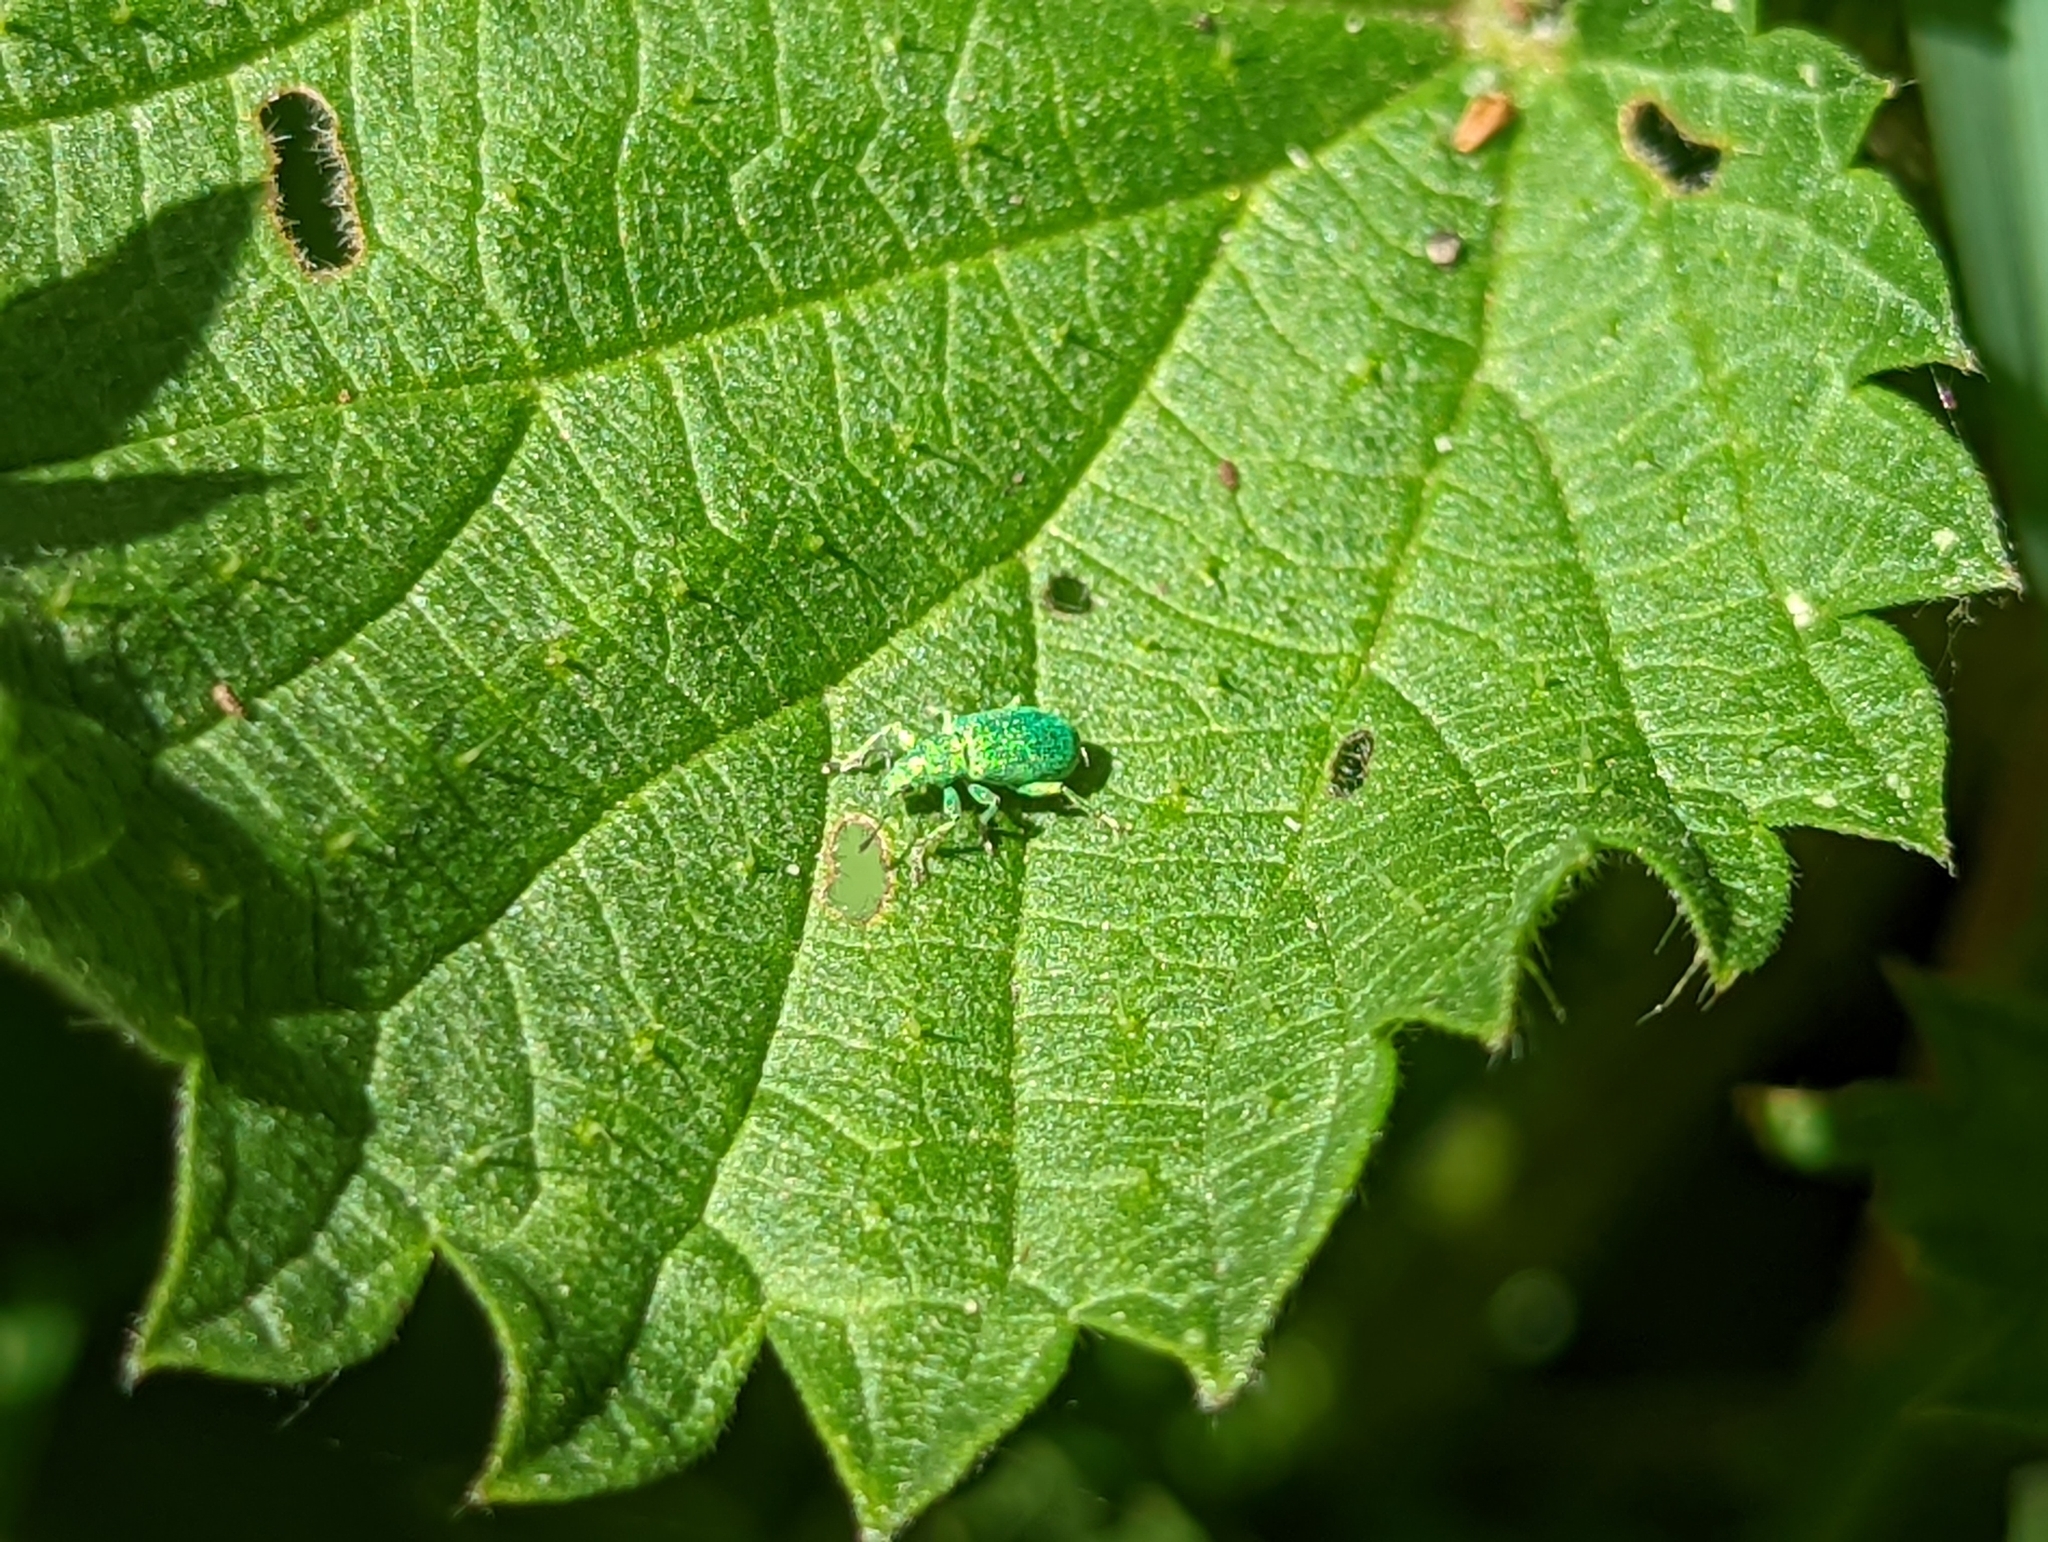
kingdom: Animalia
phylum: Arthropoda
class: Insecta
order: Coleoptera
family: Curculionidae
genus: Polydrusus
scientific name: Polydrusus pterygomalis
